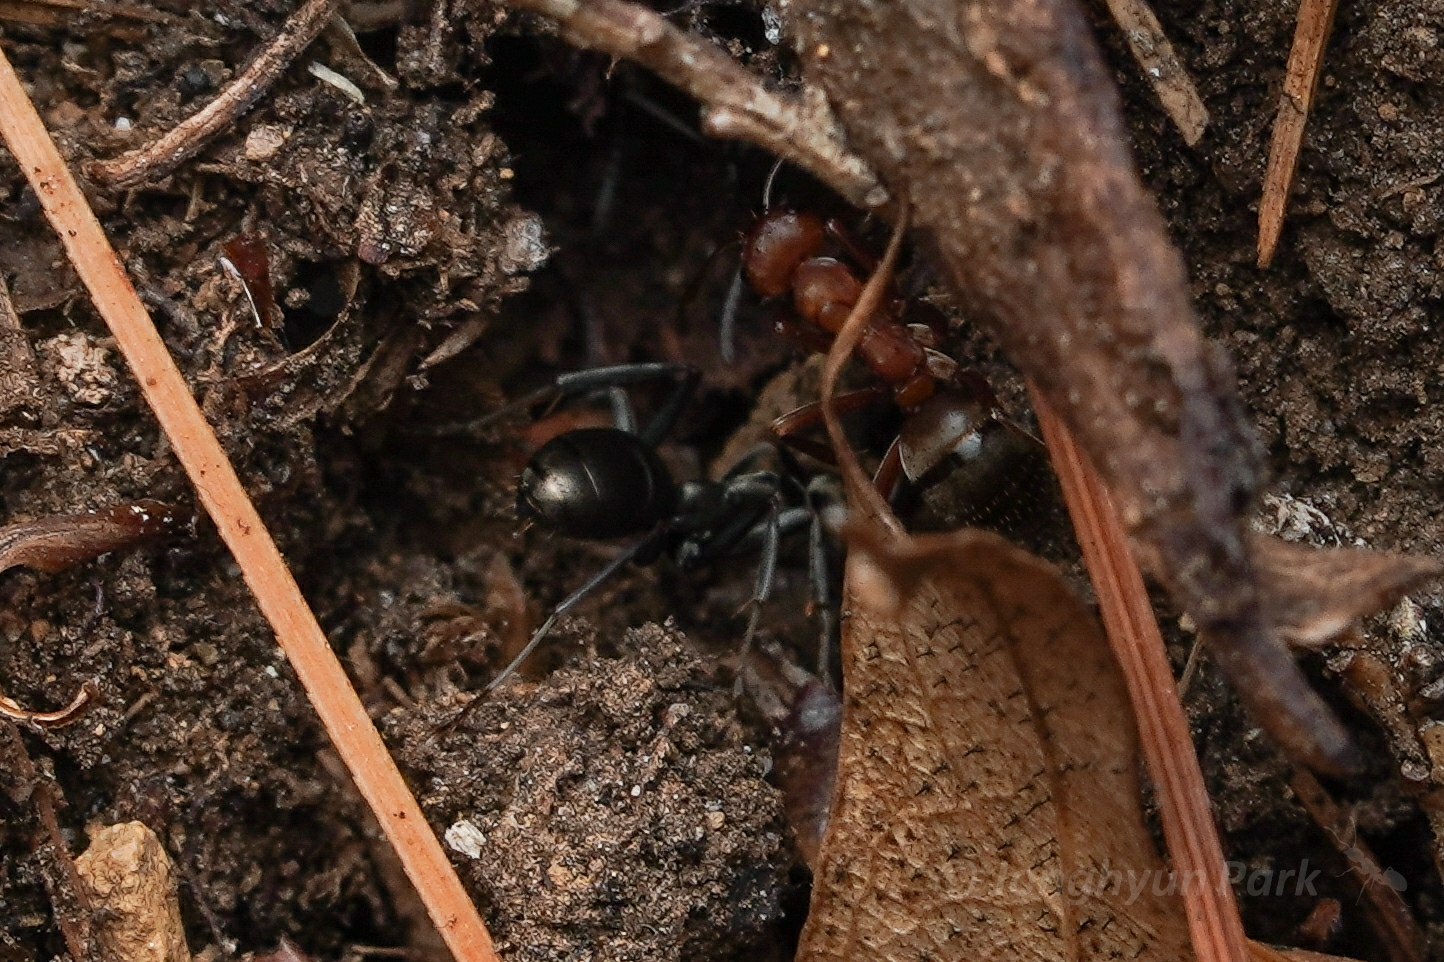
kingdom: Animalia
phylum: Arthropoda
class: Insecta
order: Hymenoptera
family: Formicidae
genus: Formica
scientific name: Formica subintegra
